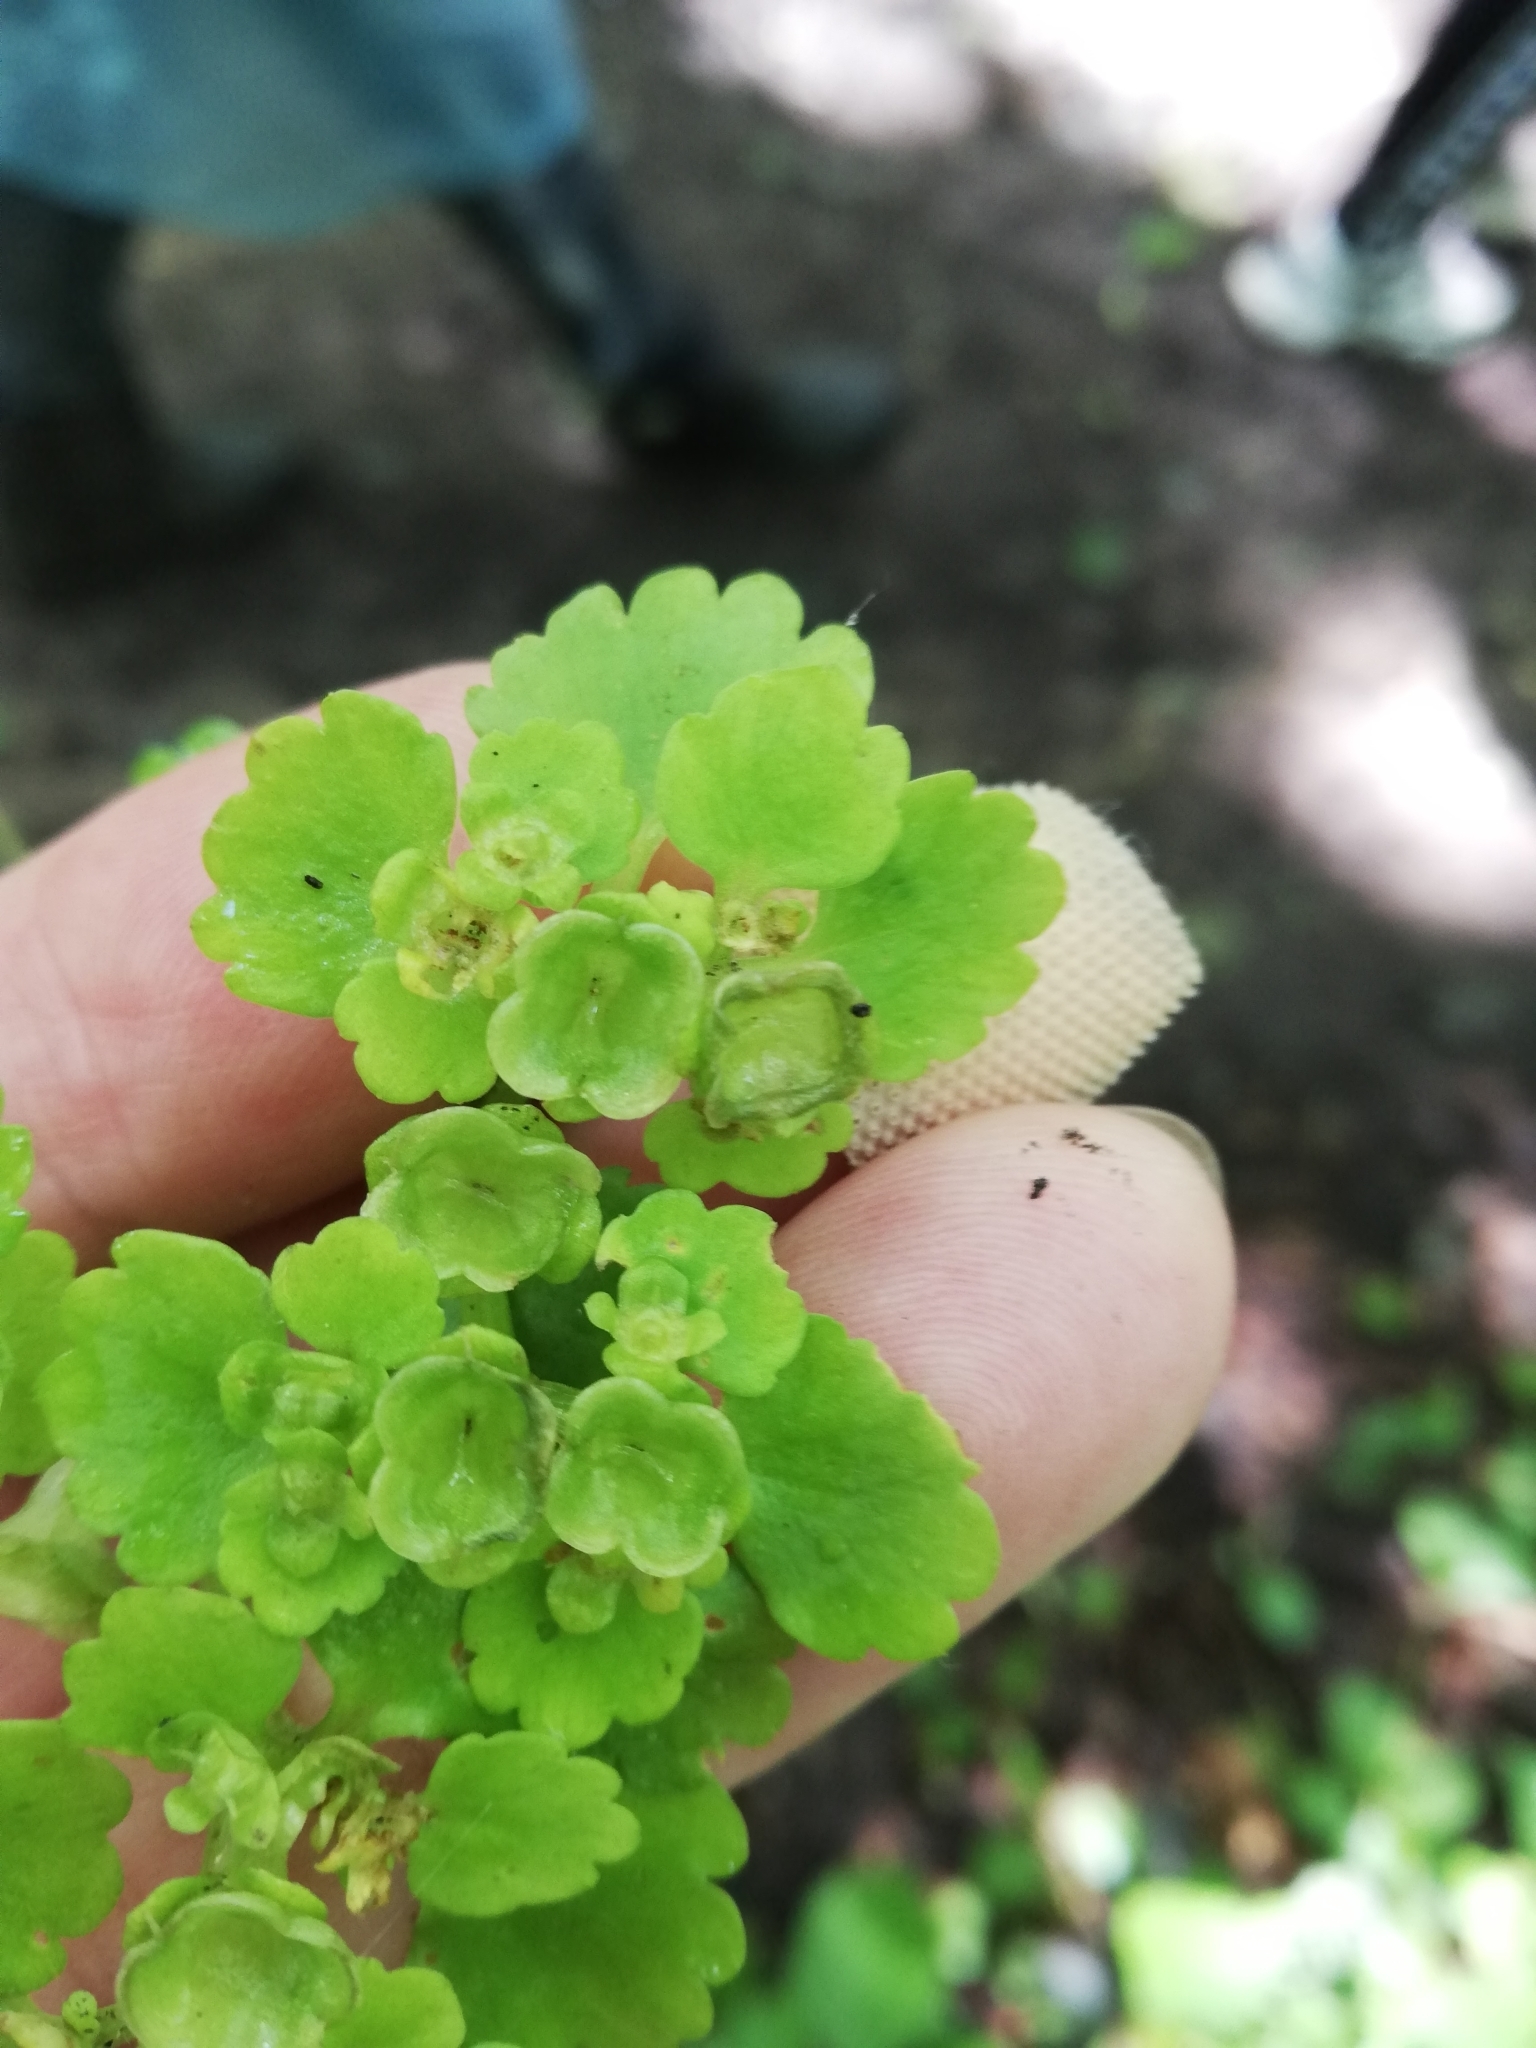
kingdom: Plantae
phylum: Tracheophyta
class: Magnoliopsida
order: Saxifragales
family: Saxifragaceae
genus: Chrysosplenium
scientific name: Chrysosplenium alternifolium
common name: Alternate-leaved golden-saxifrage
